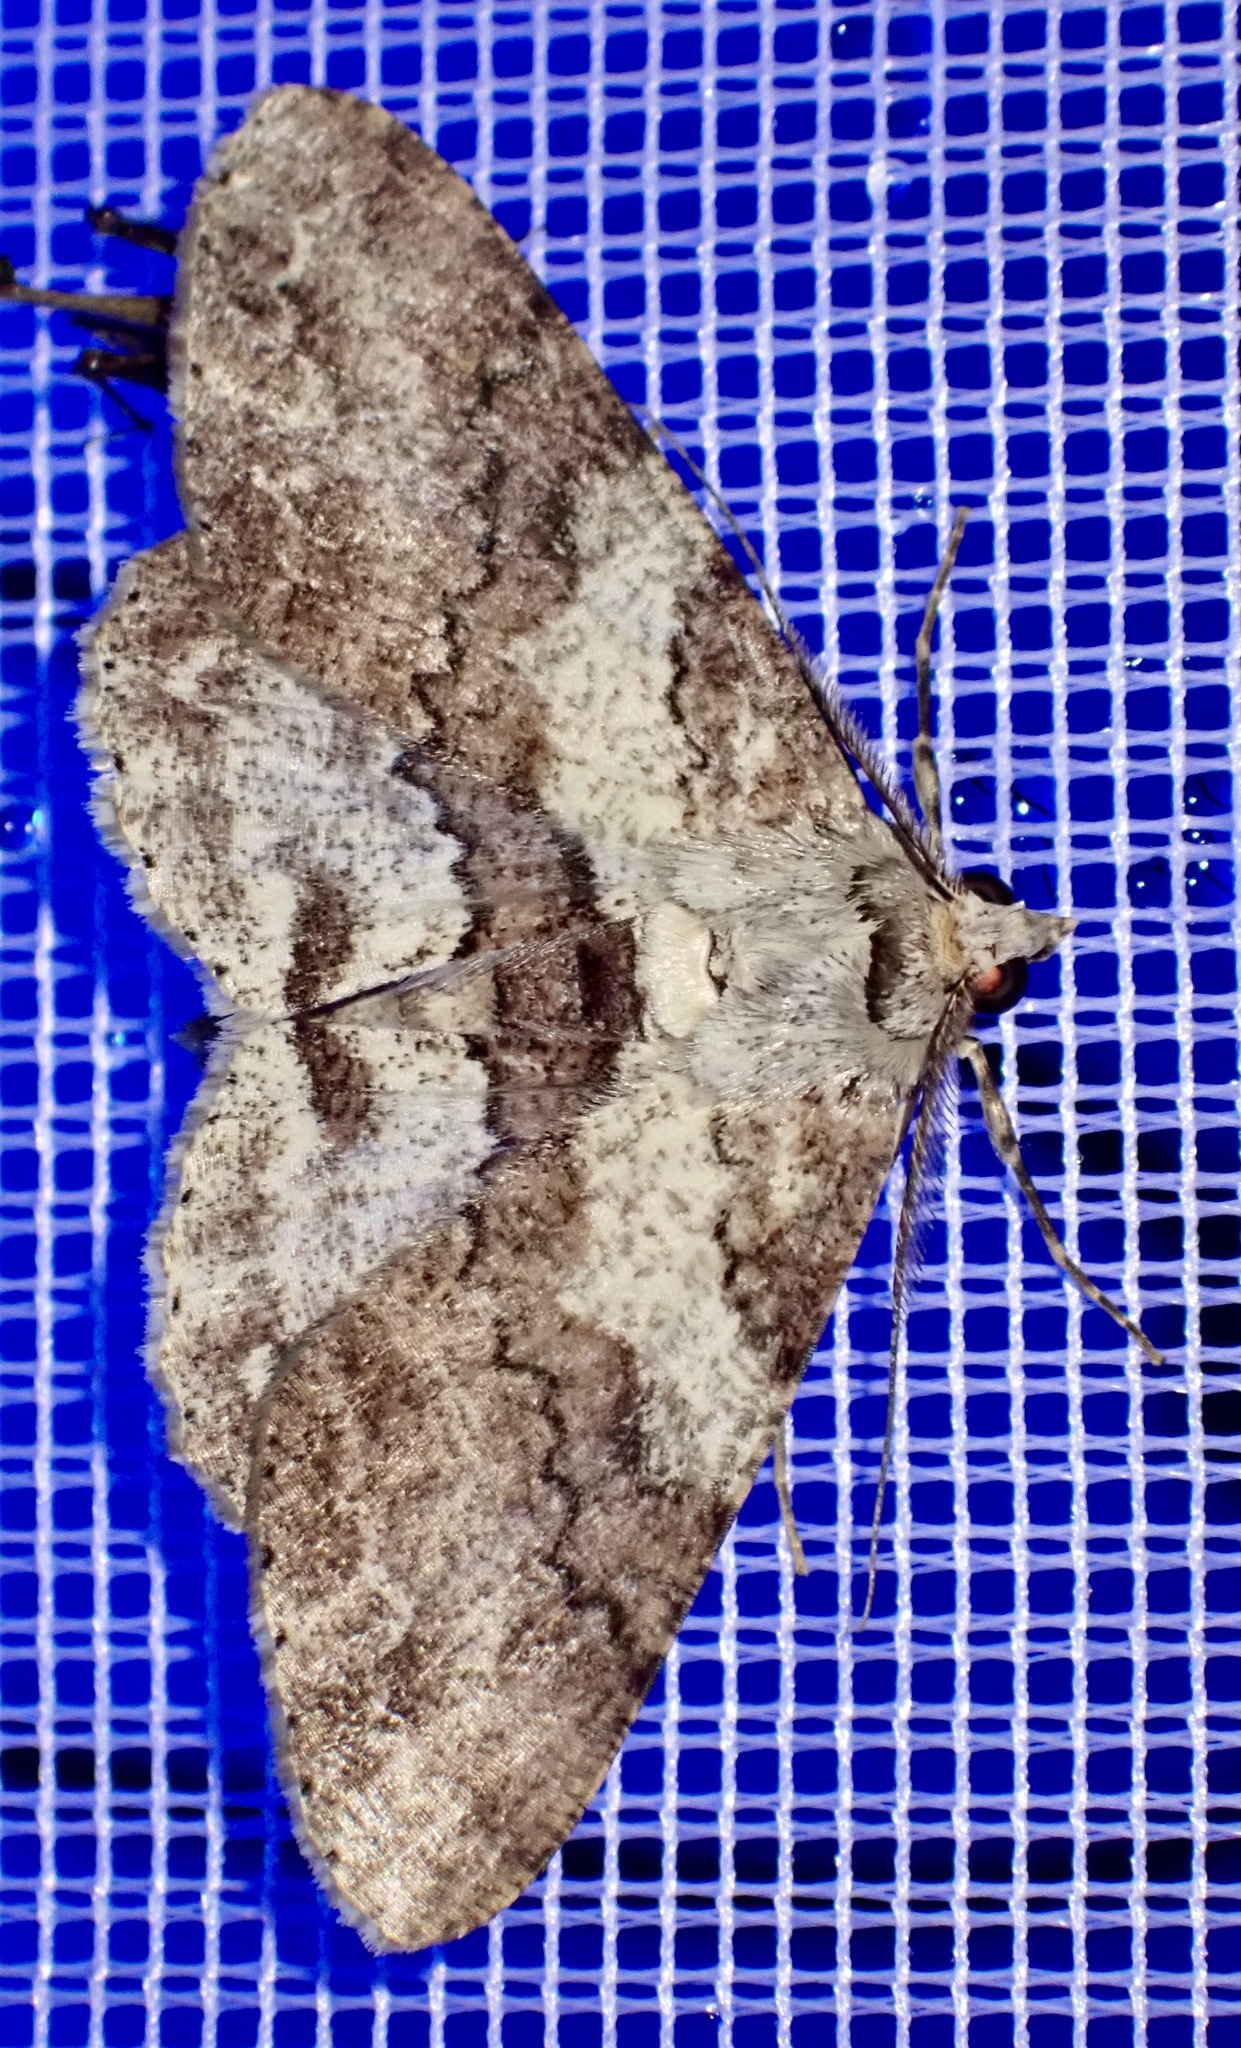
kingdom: Animalia
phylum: Arthropoda
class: Insecta
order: Lepidoptera
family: Geometridae
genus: Cleora
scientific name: Cleora repetita
